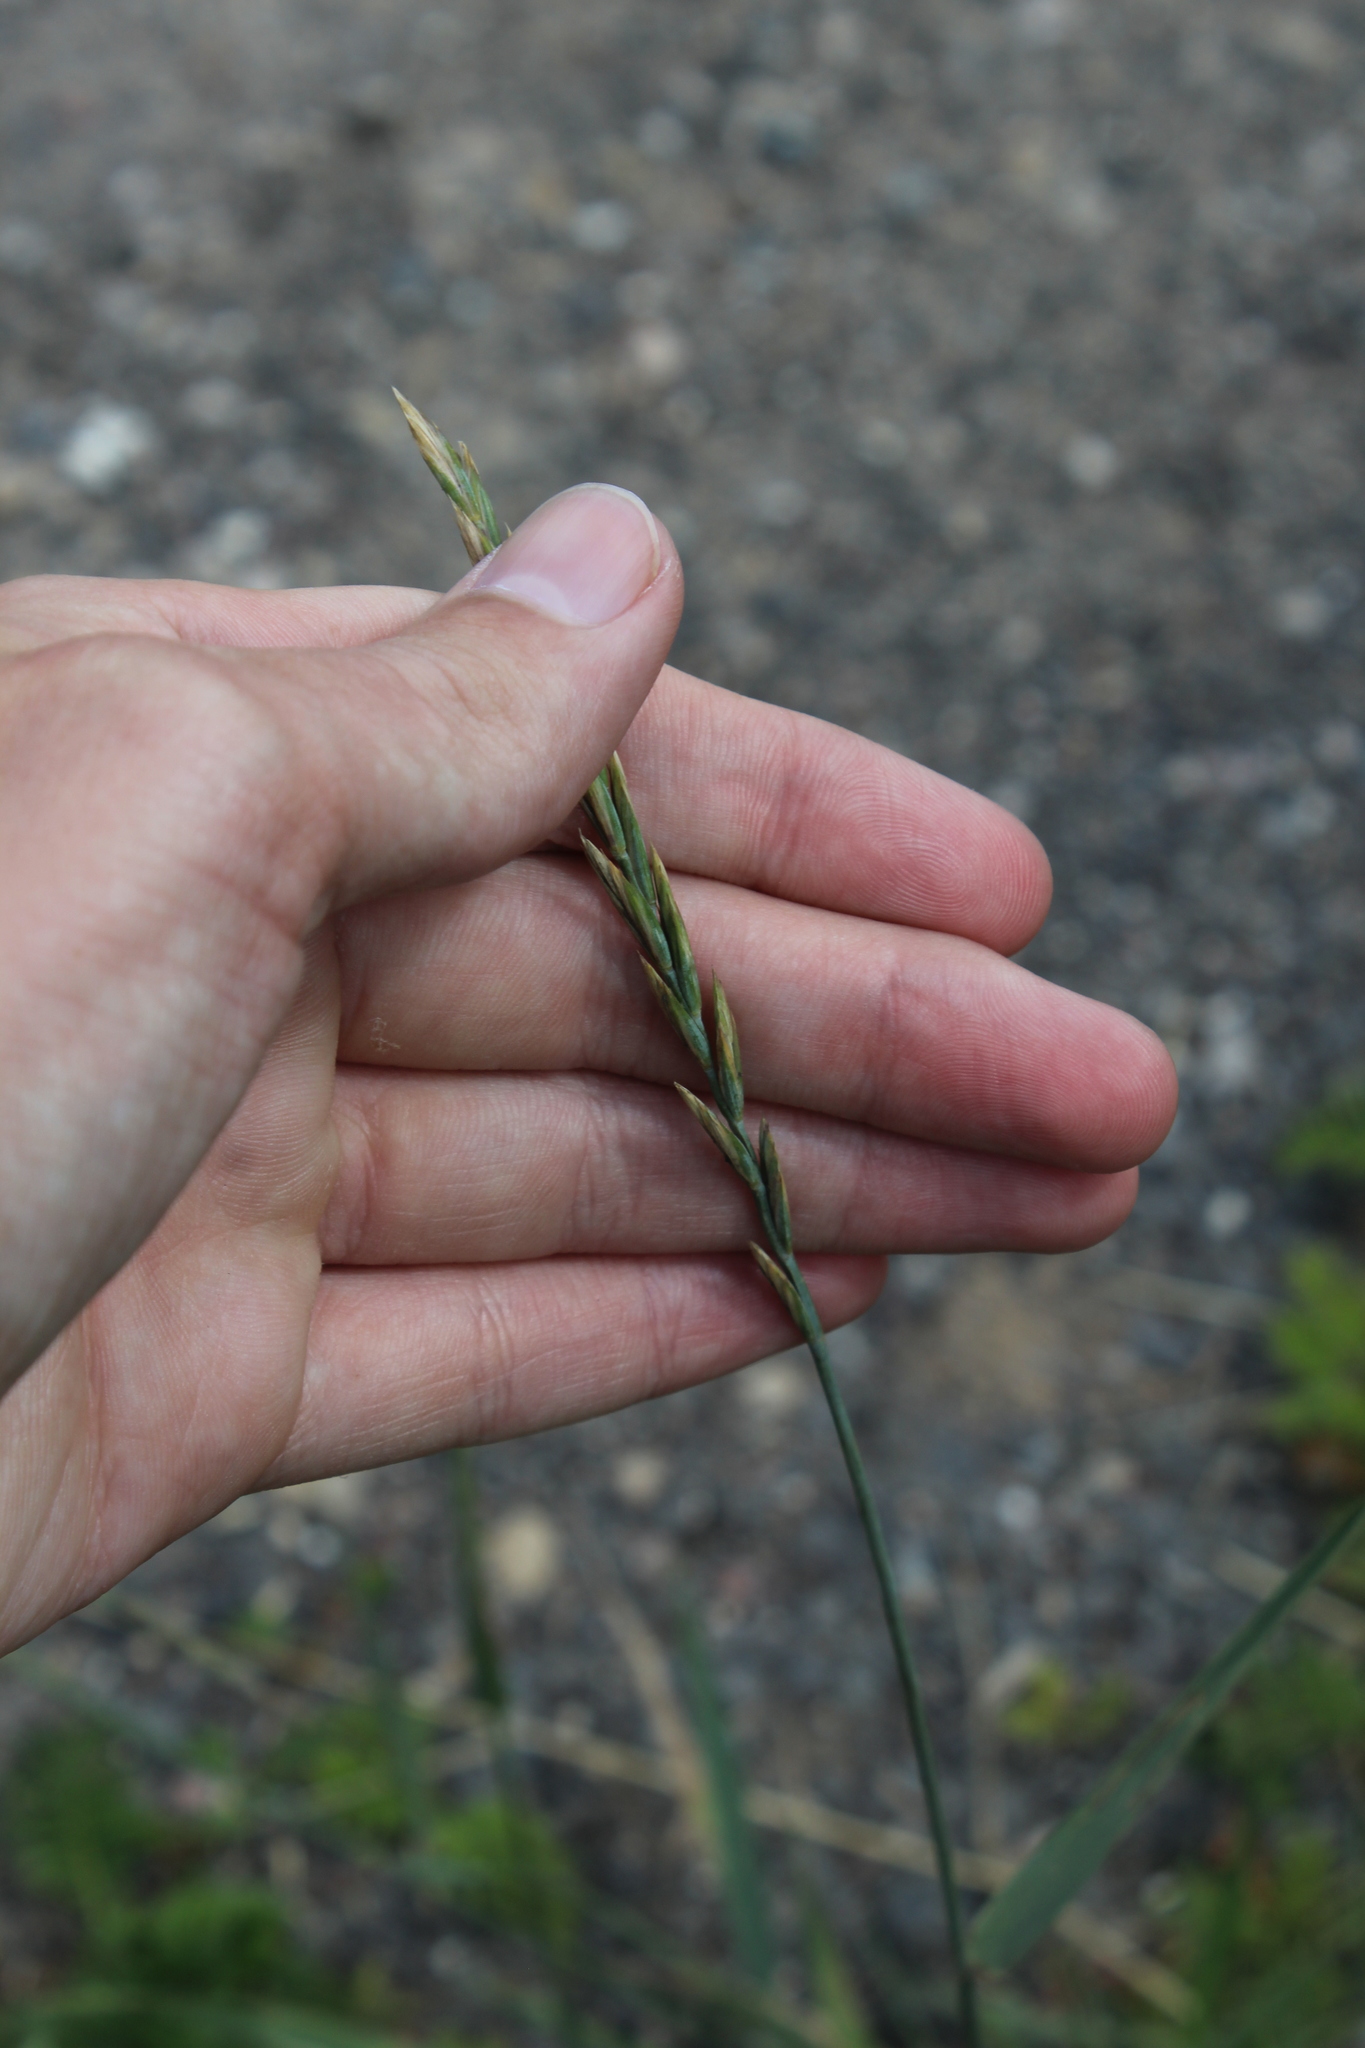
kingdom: Plantae
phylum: Tracheophyta
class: Liliopsida
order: Poales
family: Poaceae
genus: Elymus
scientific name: Elymus repens
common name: Quackgrass
